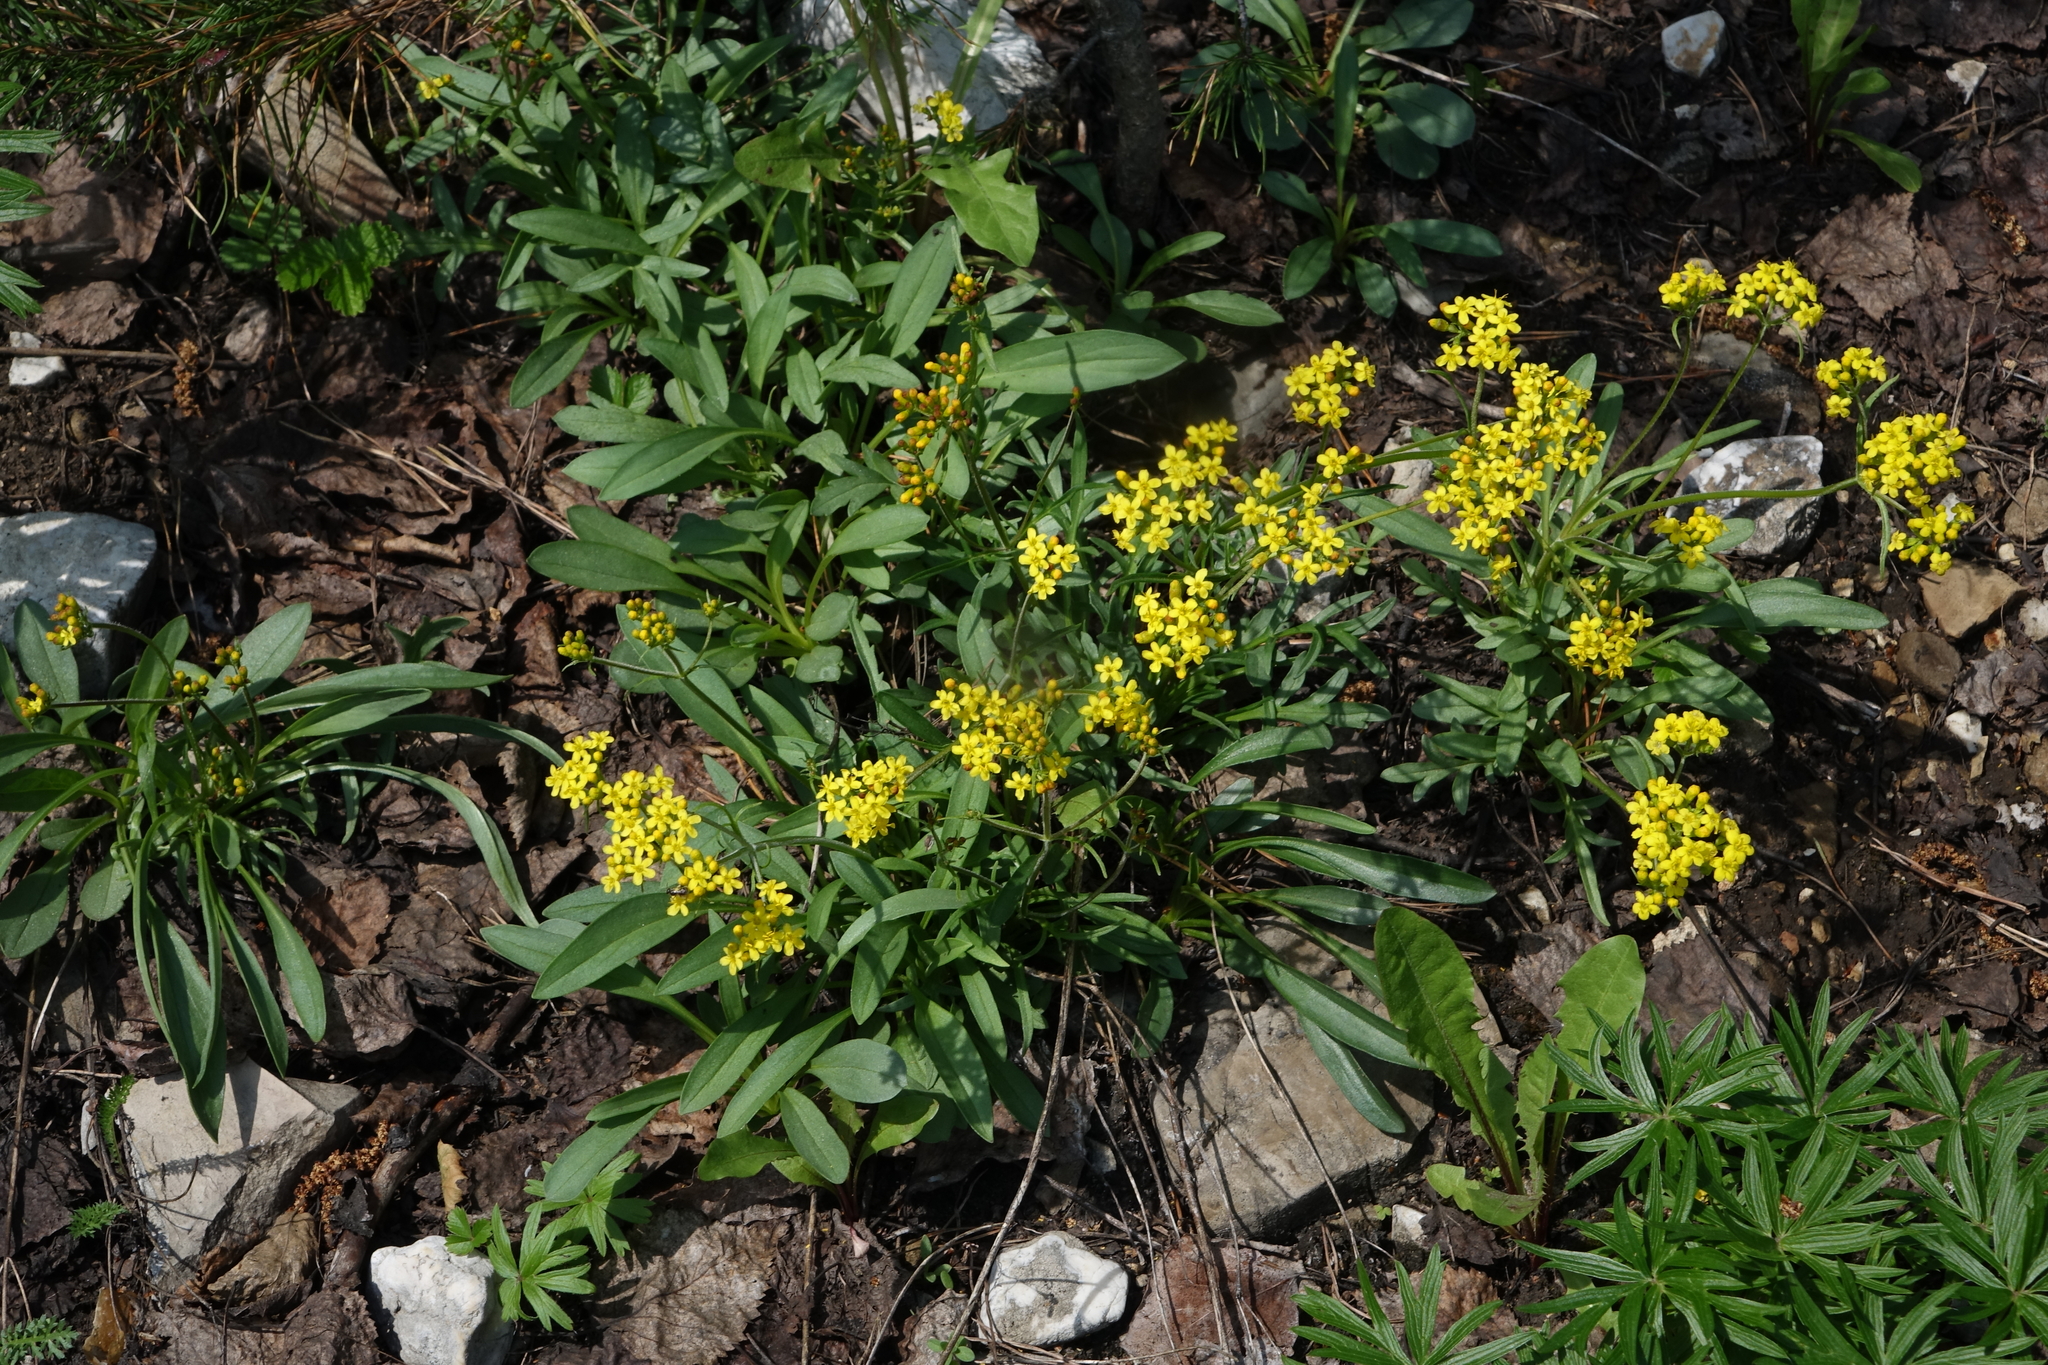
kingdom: Plantae
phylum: Tracheophyta
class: Magnoliopsida
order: Dipsacales
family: Caprifoliaceae
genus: Patrinia
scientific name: Patrinia sibirica
